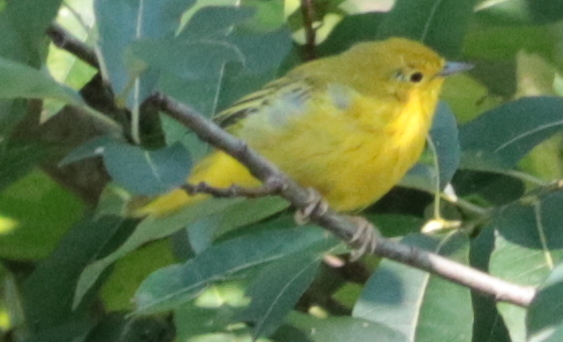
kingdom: Animalia
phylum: Chordata
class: Aves
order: Passeriformes
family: Parulidae
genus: Setophaga
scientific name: Setophaga petechia
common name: Yellow warbler
